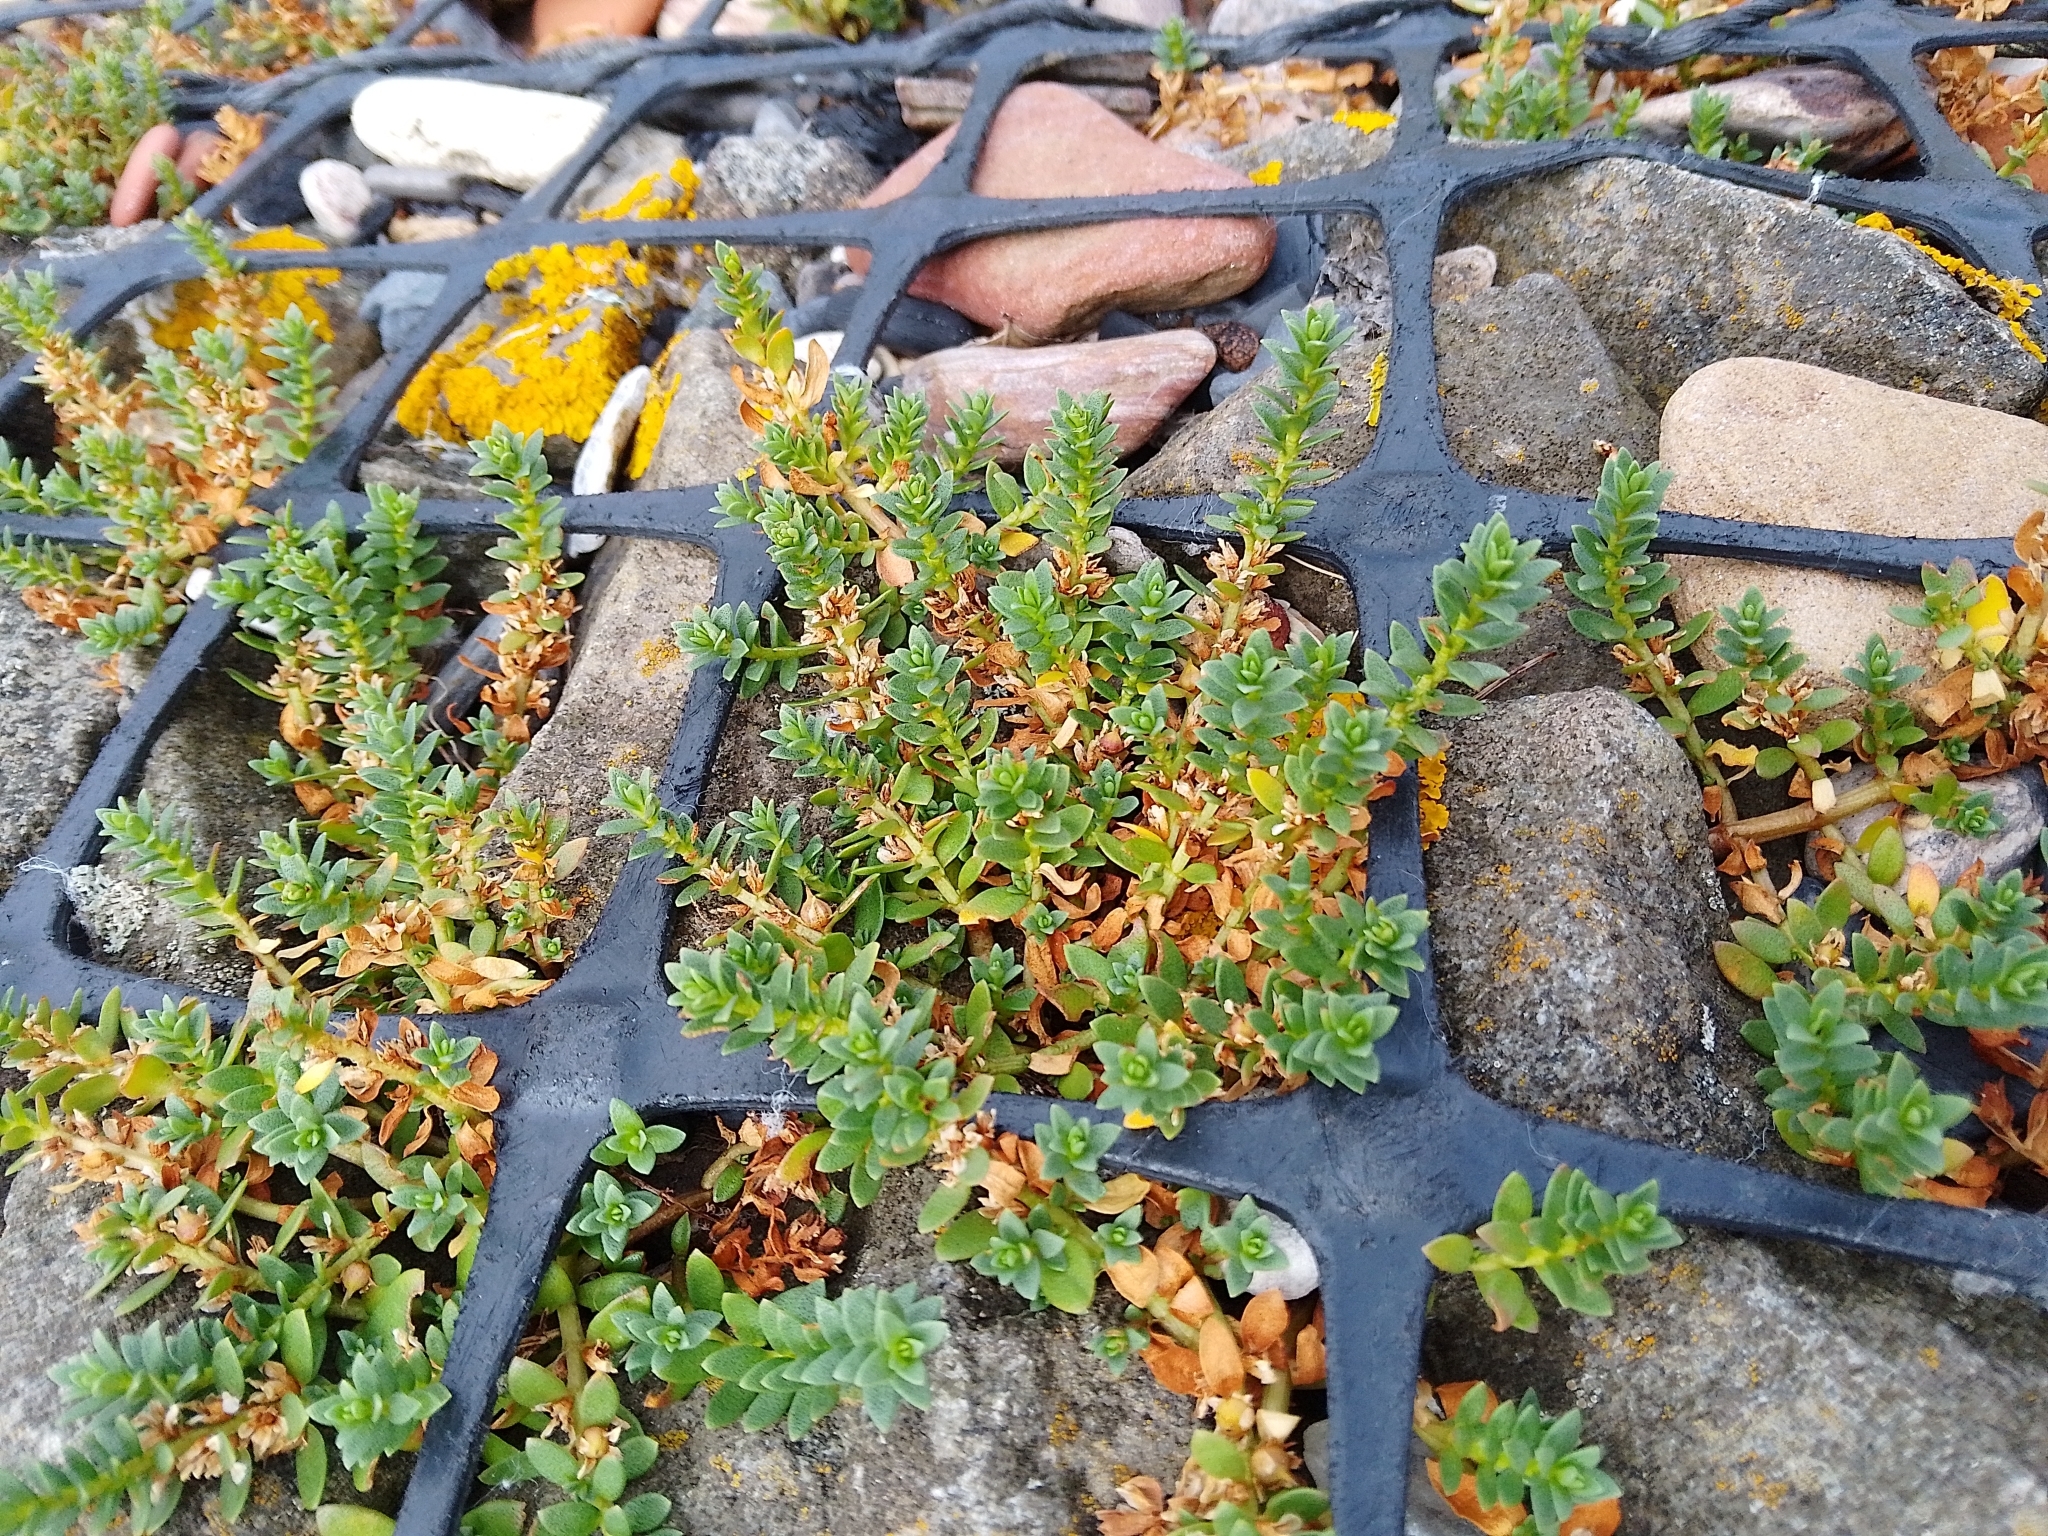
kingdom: Plantae
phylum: Tracheophyta
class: Magnoliopsida
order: Ericales
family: Primulaceae
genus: Lysimachia
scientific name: Lysimachia maritima
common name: Sea milkwort
